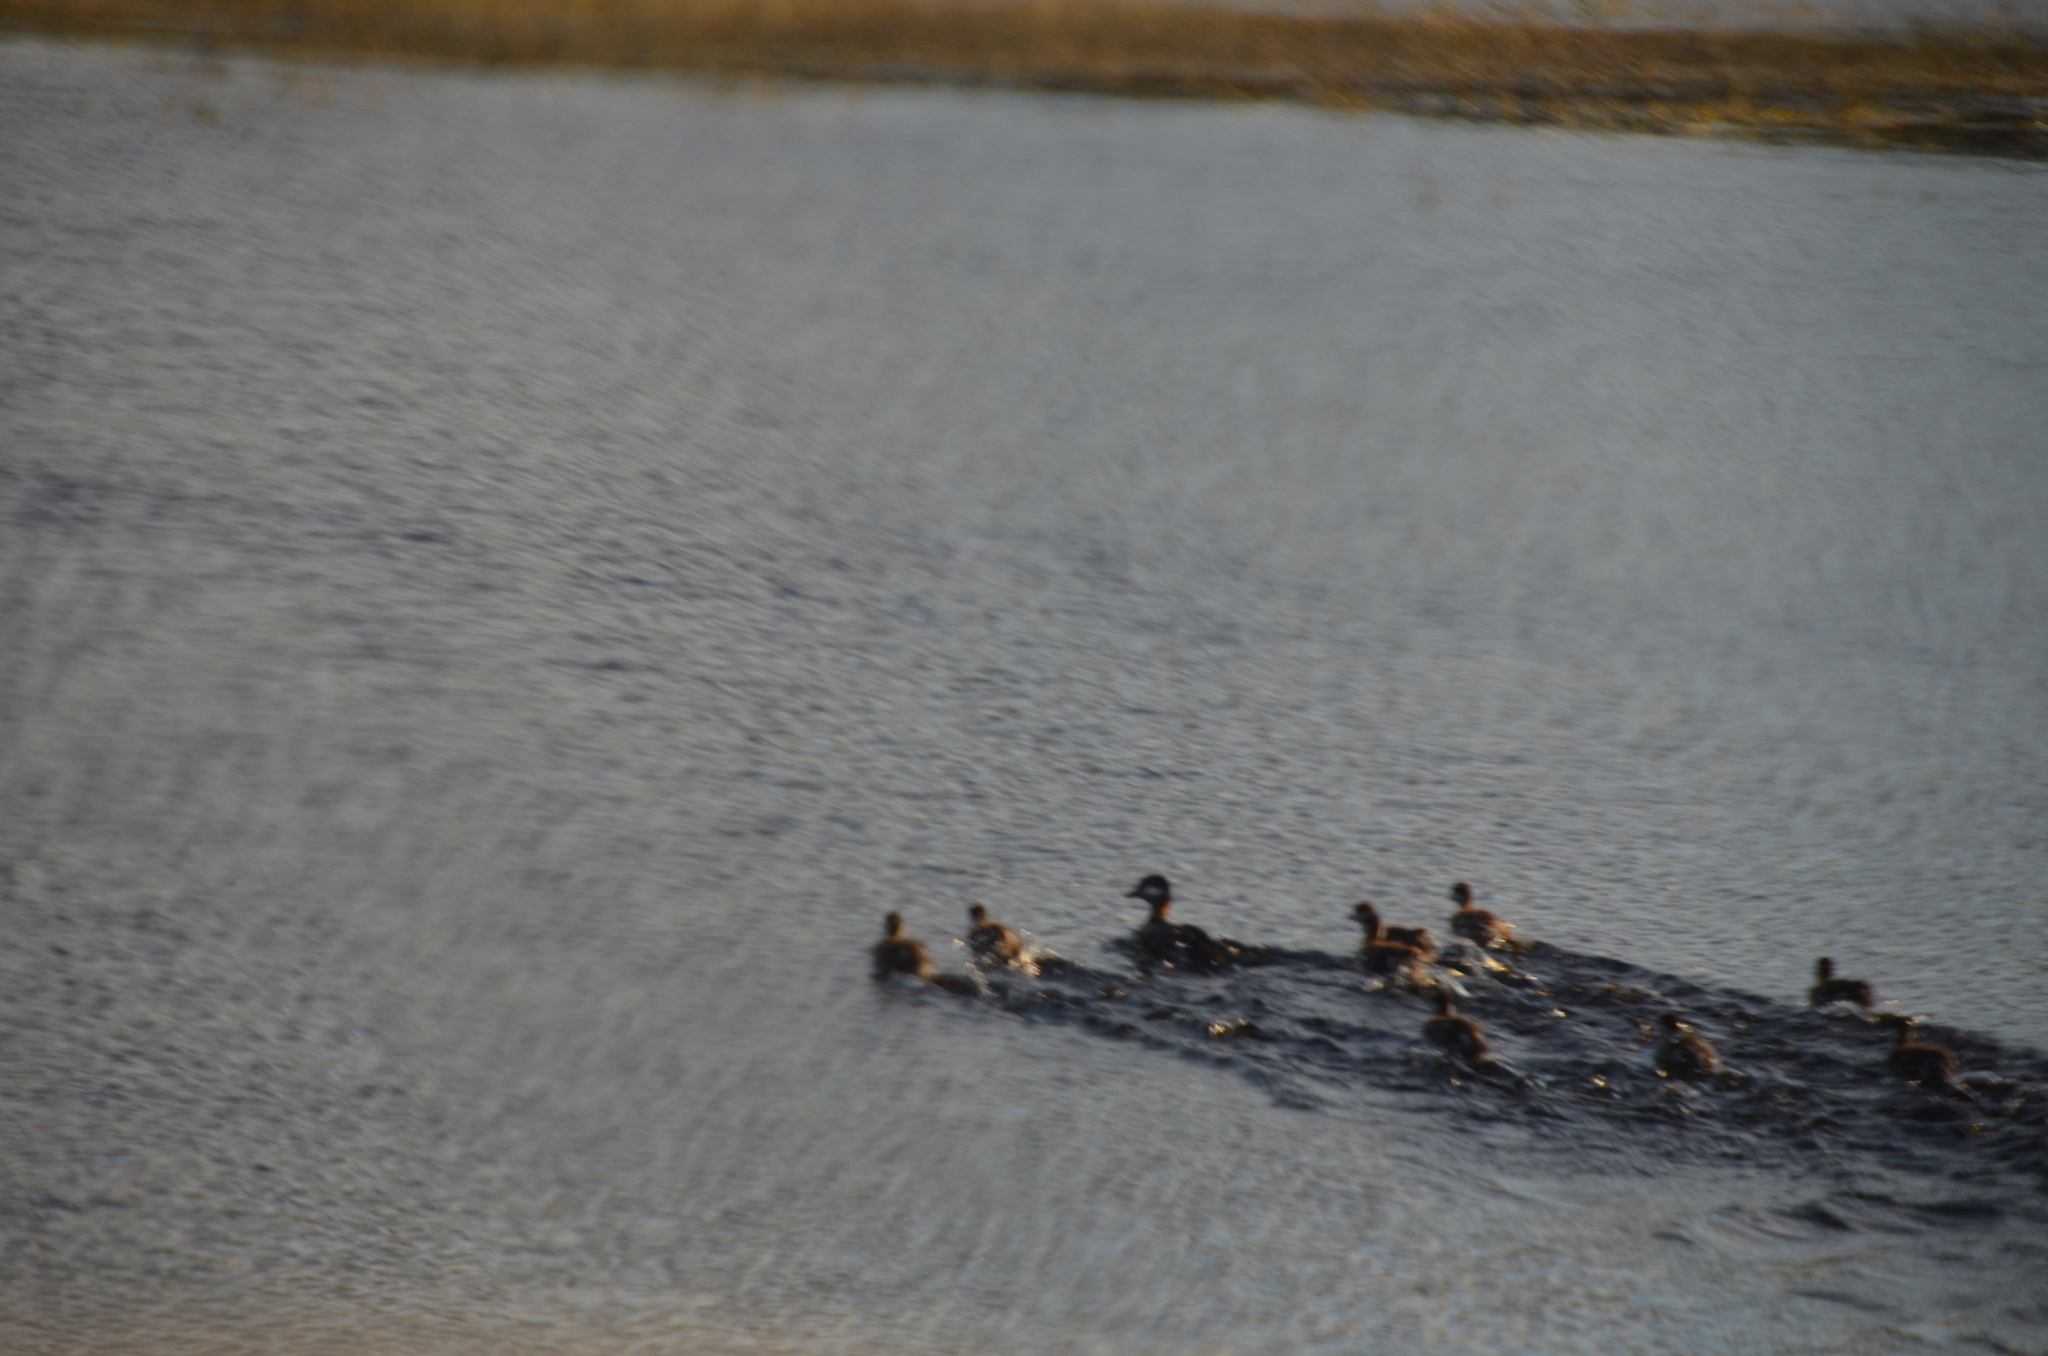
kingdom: Animalia
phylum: Chordata
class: Aves
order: Anseriformes
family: Anatidae
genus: Bucephala
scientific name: Bucephala albeola
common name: Bufflehead
